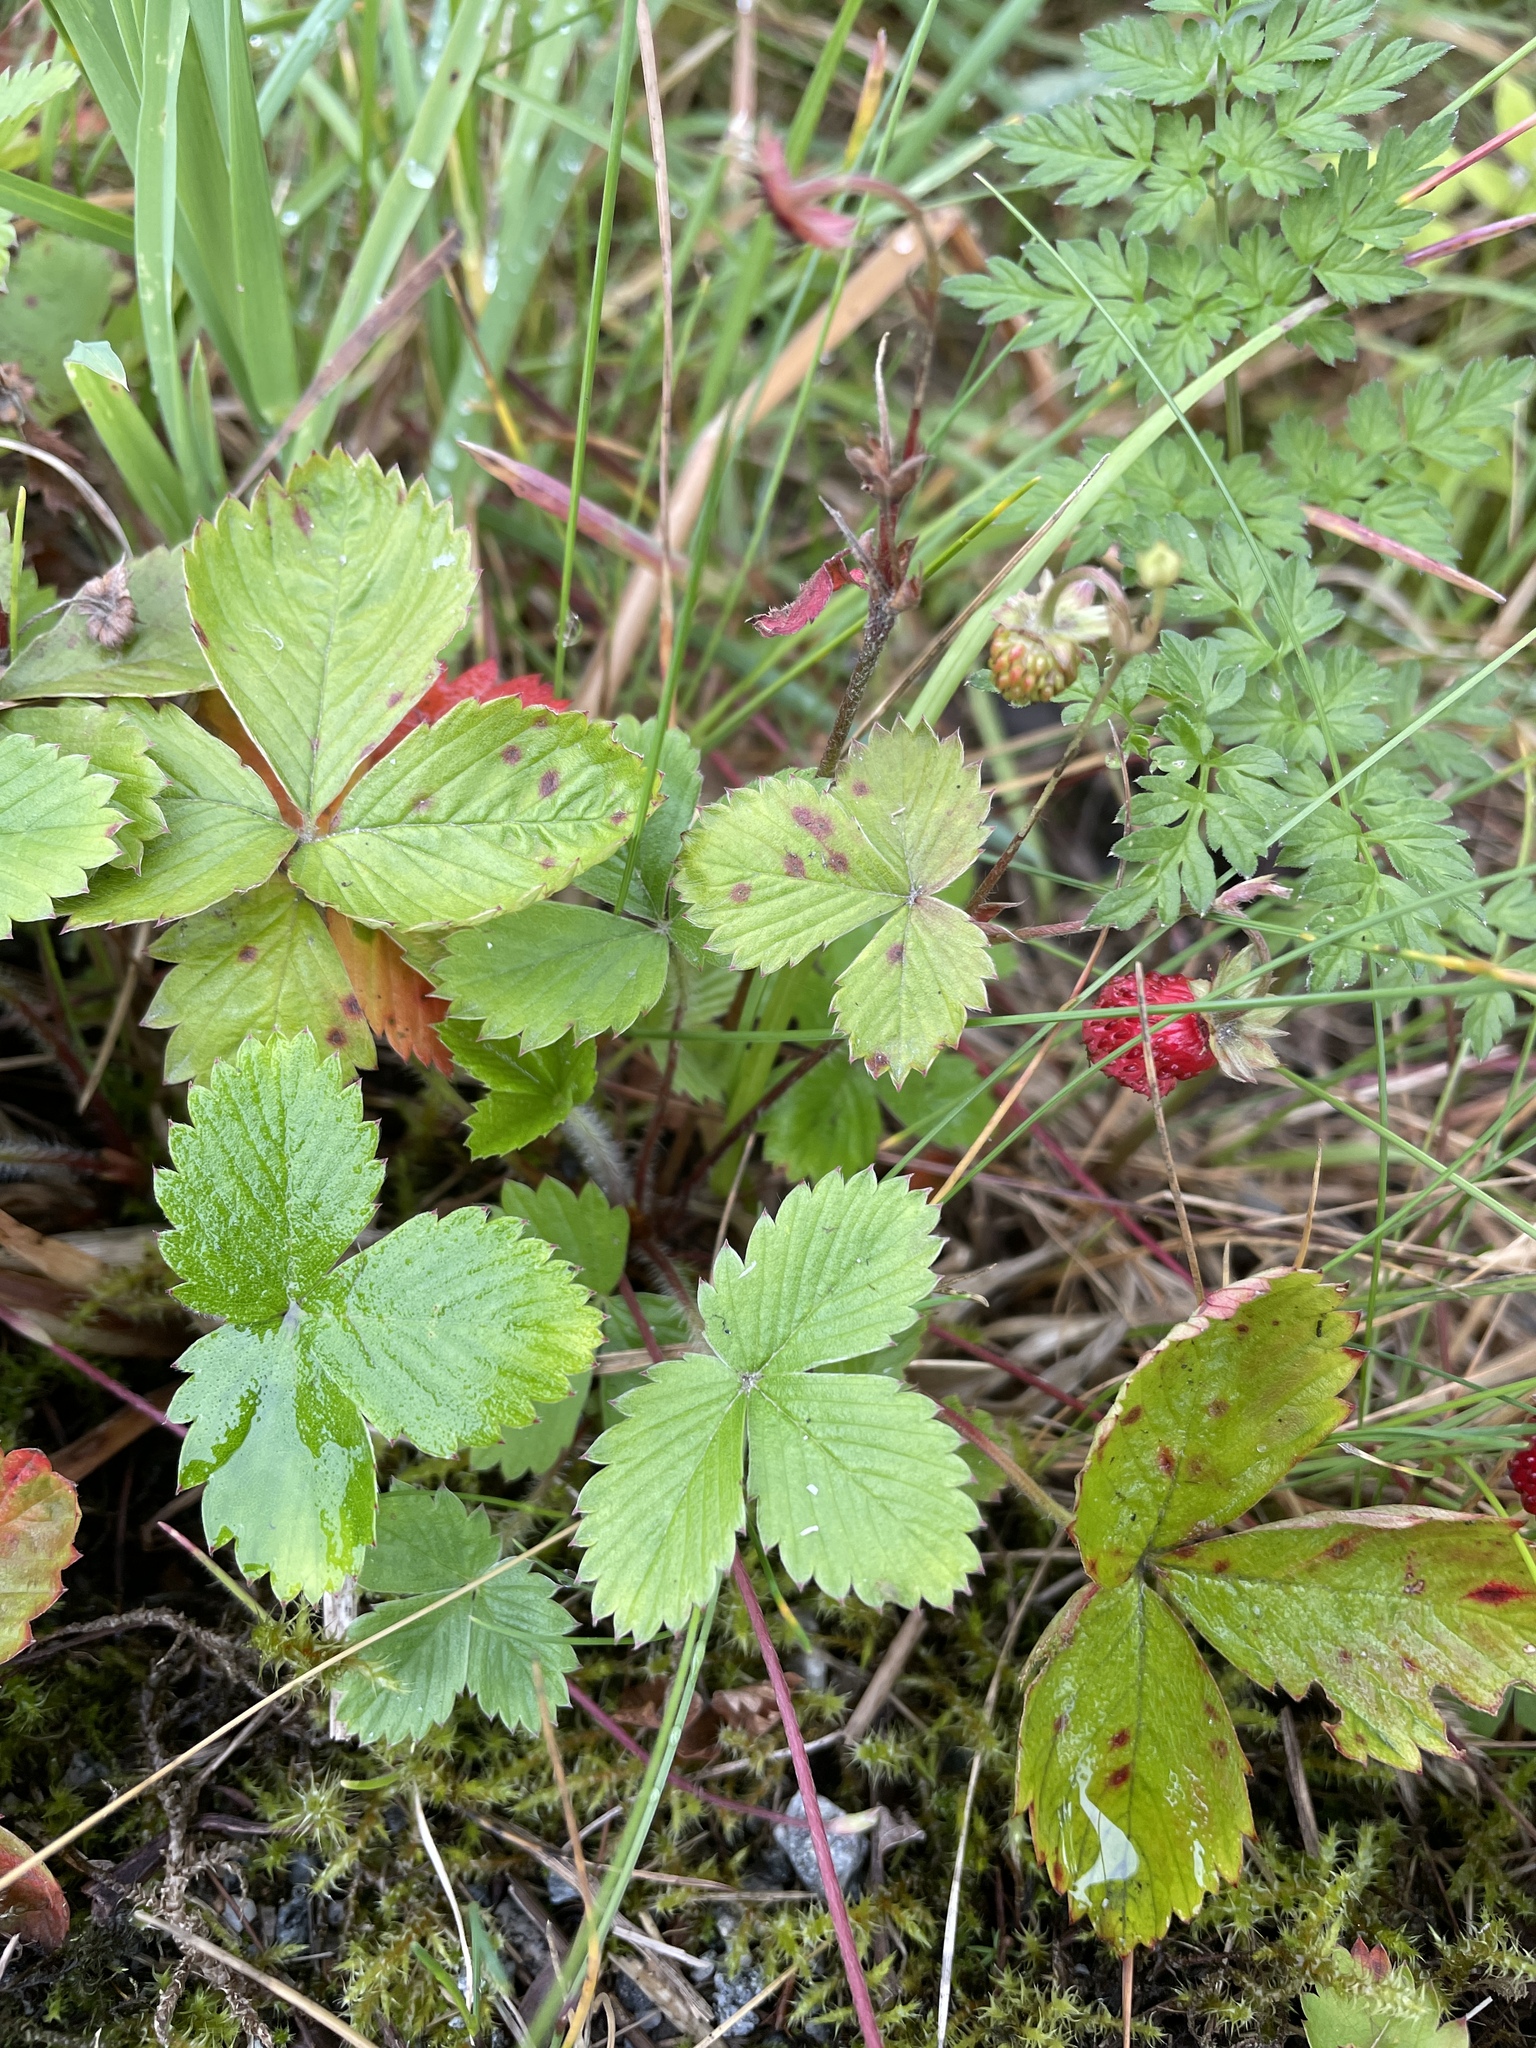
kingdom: Plantae
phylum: Tracheophyta
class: Magnoliopsida
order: Rosales
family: Rosaceae
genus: Fragaria
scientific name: Fragaria vesca
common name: Wild strawberry
